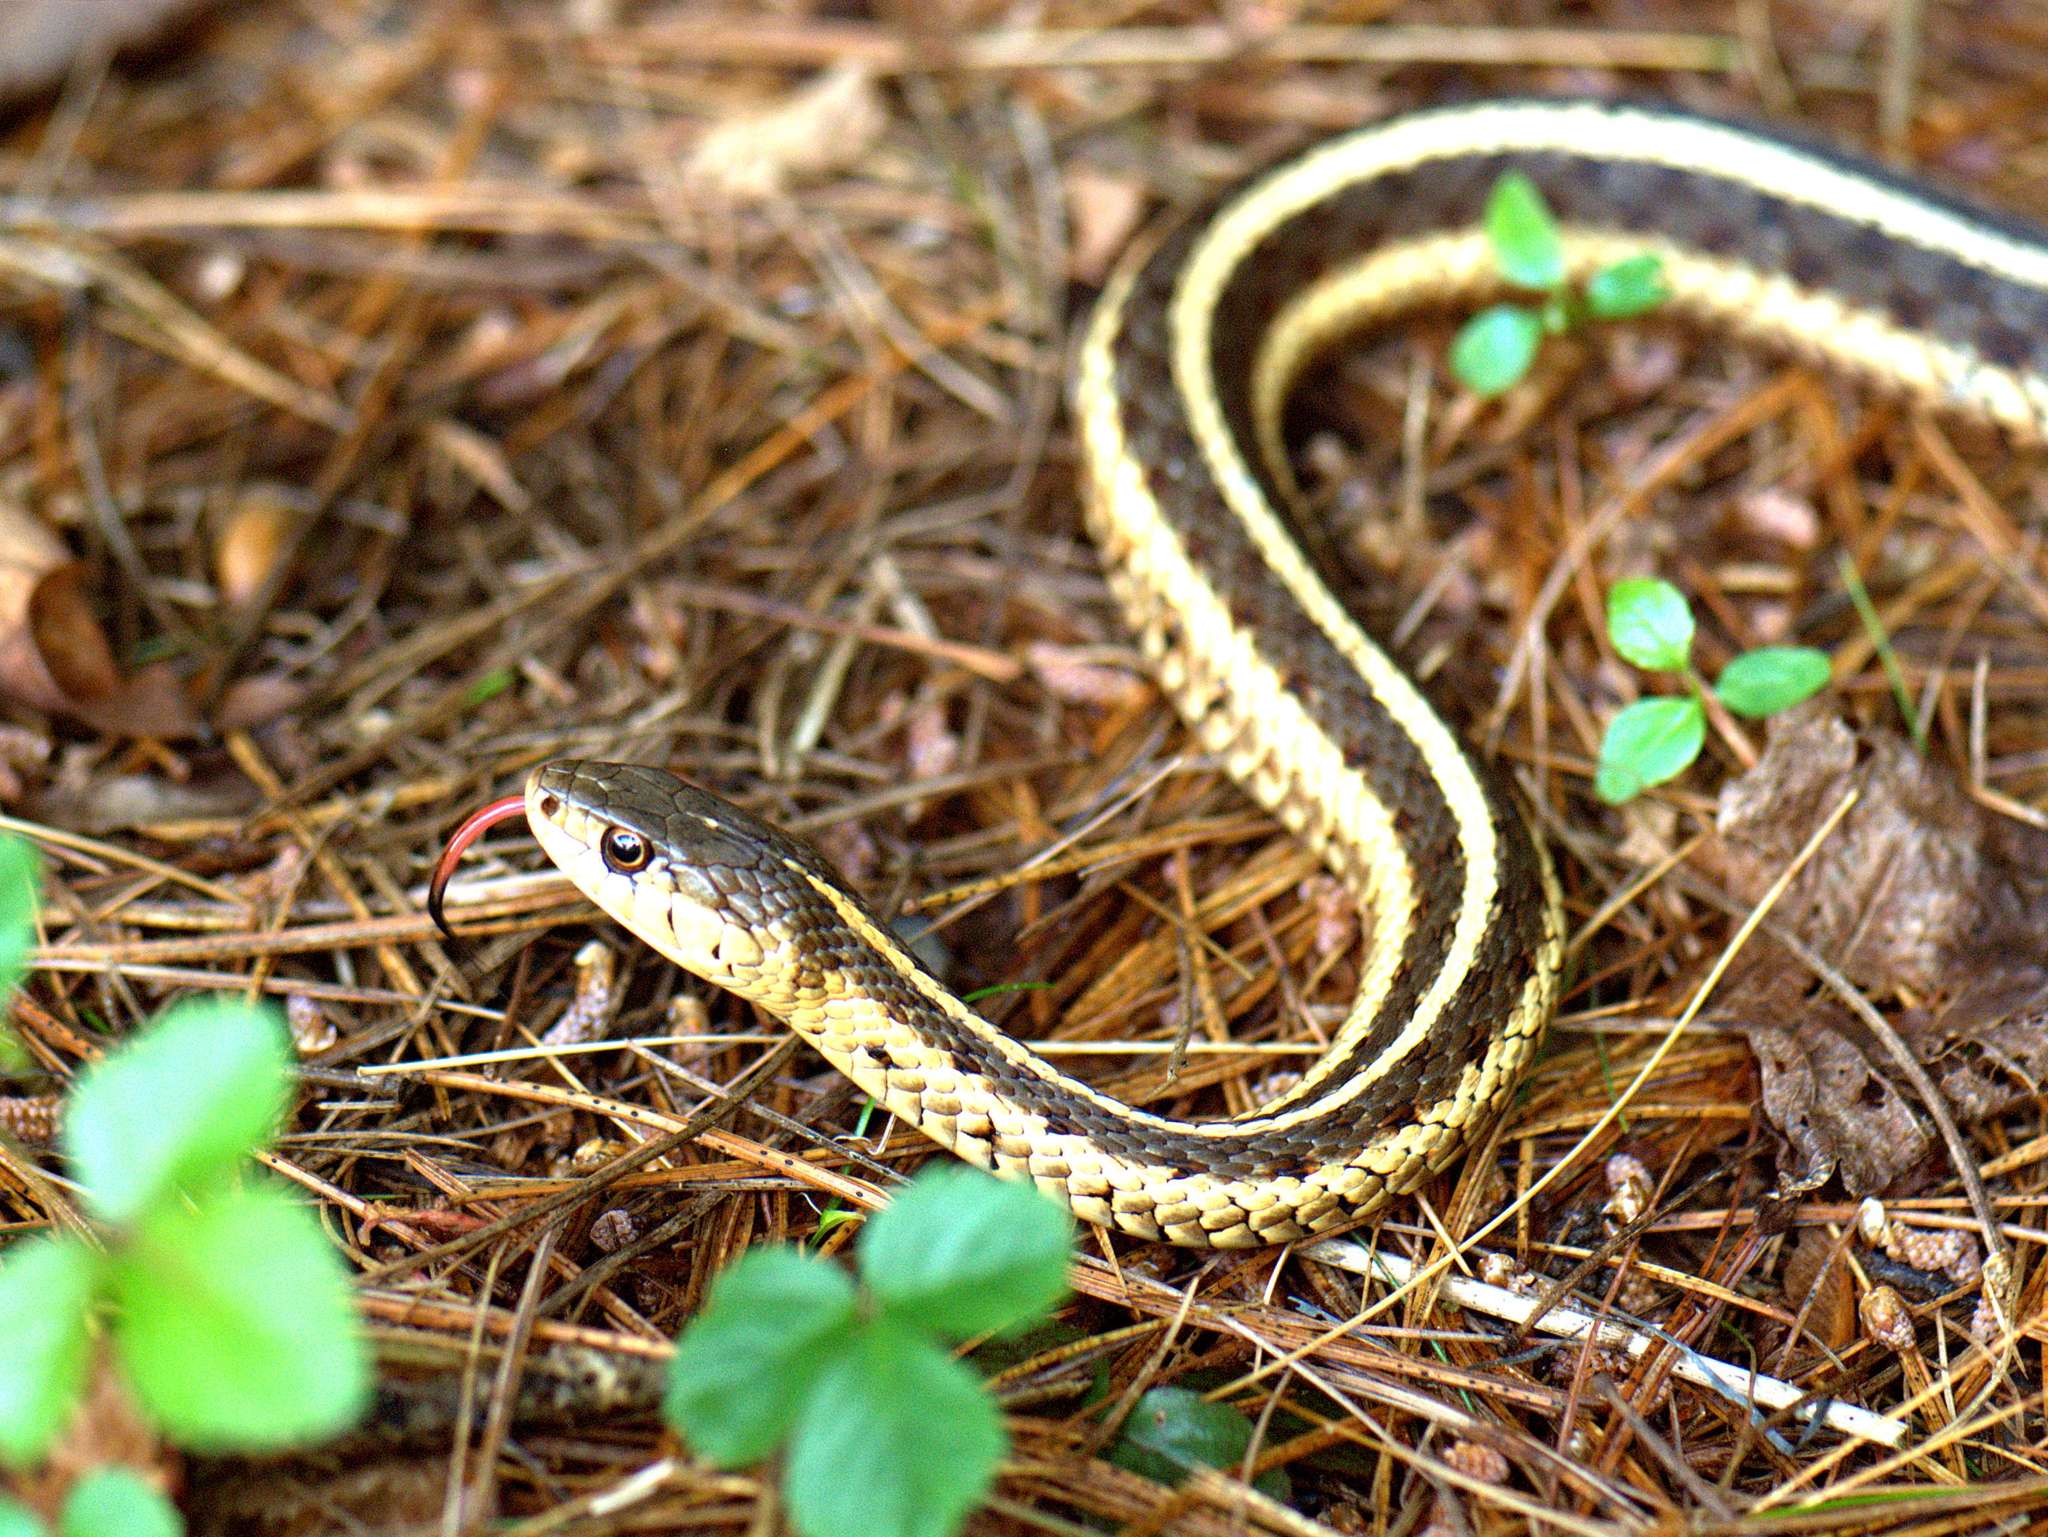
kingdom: Animalia
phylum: Chordata
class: Squamata
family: Colubridae
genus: Thamnophis
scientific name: Thamnophis sirtalis
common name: Common garter snake
